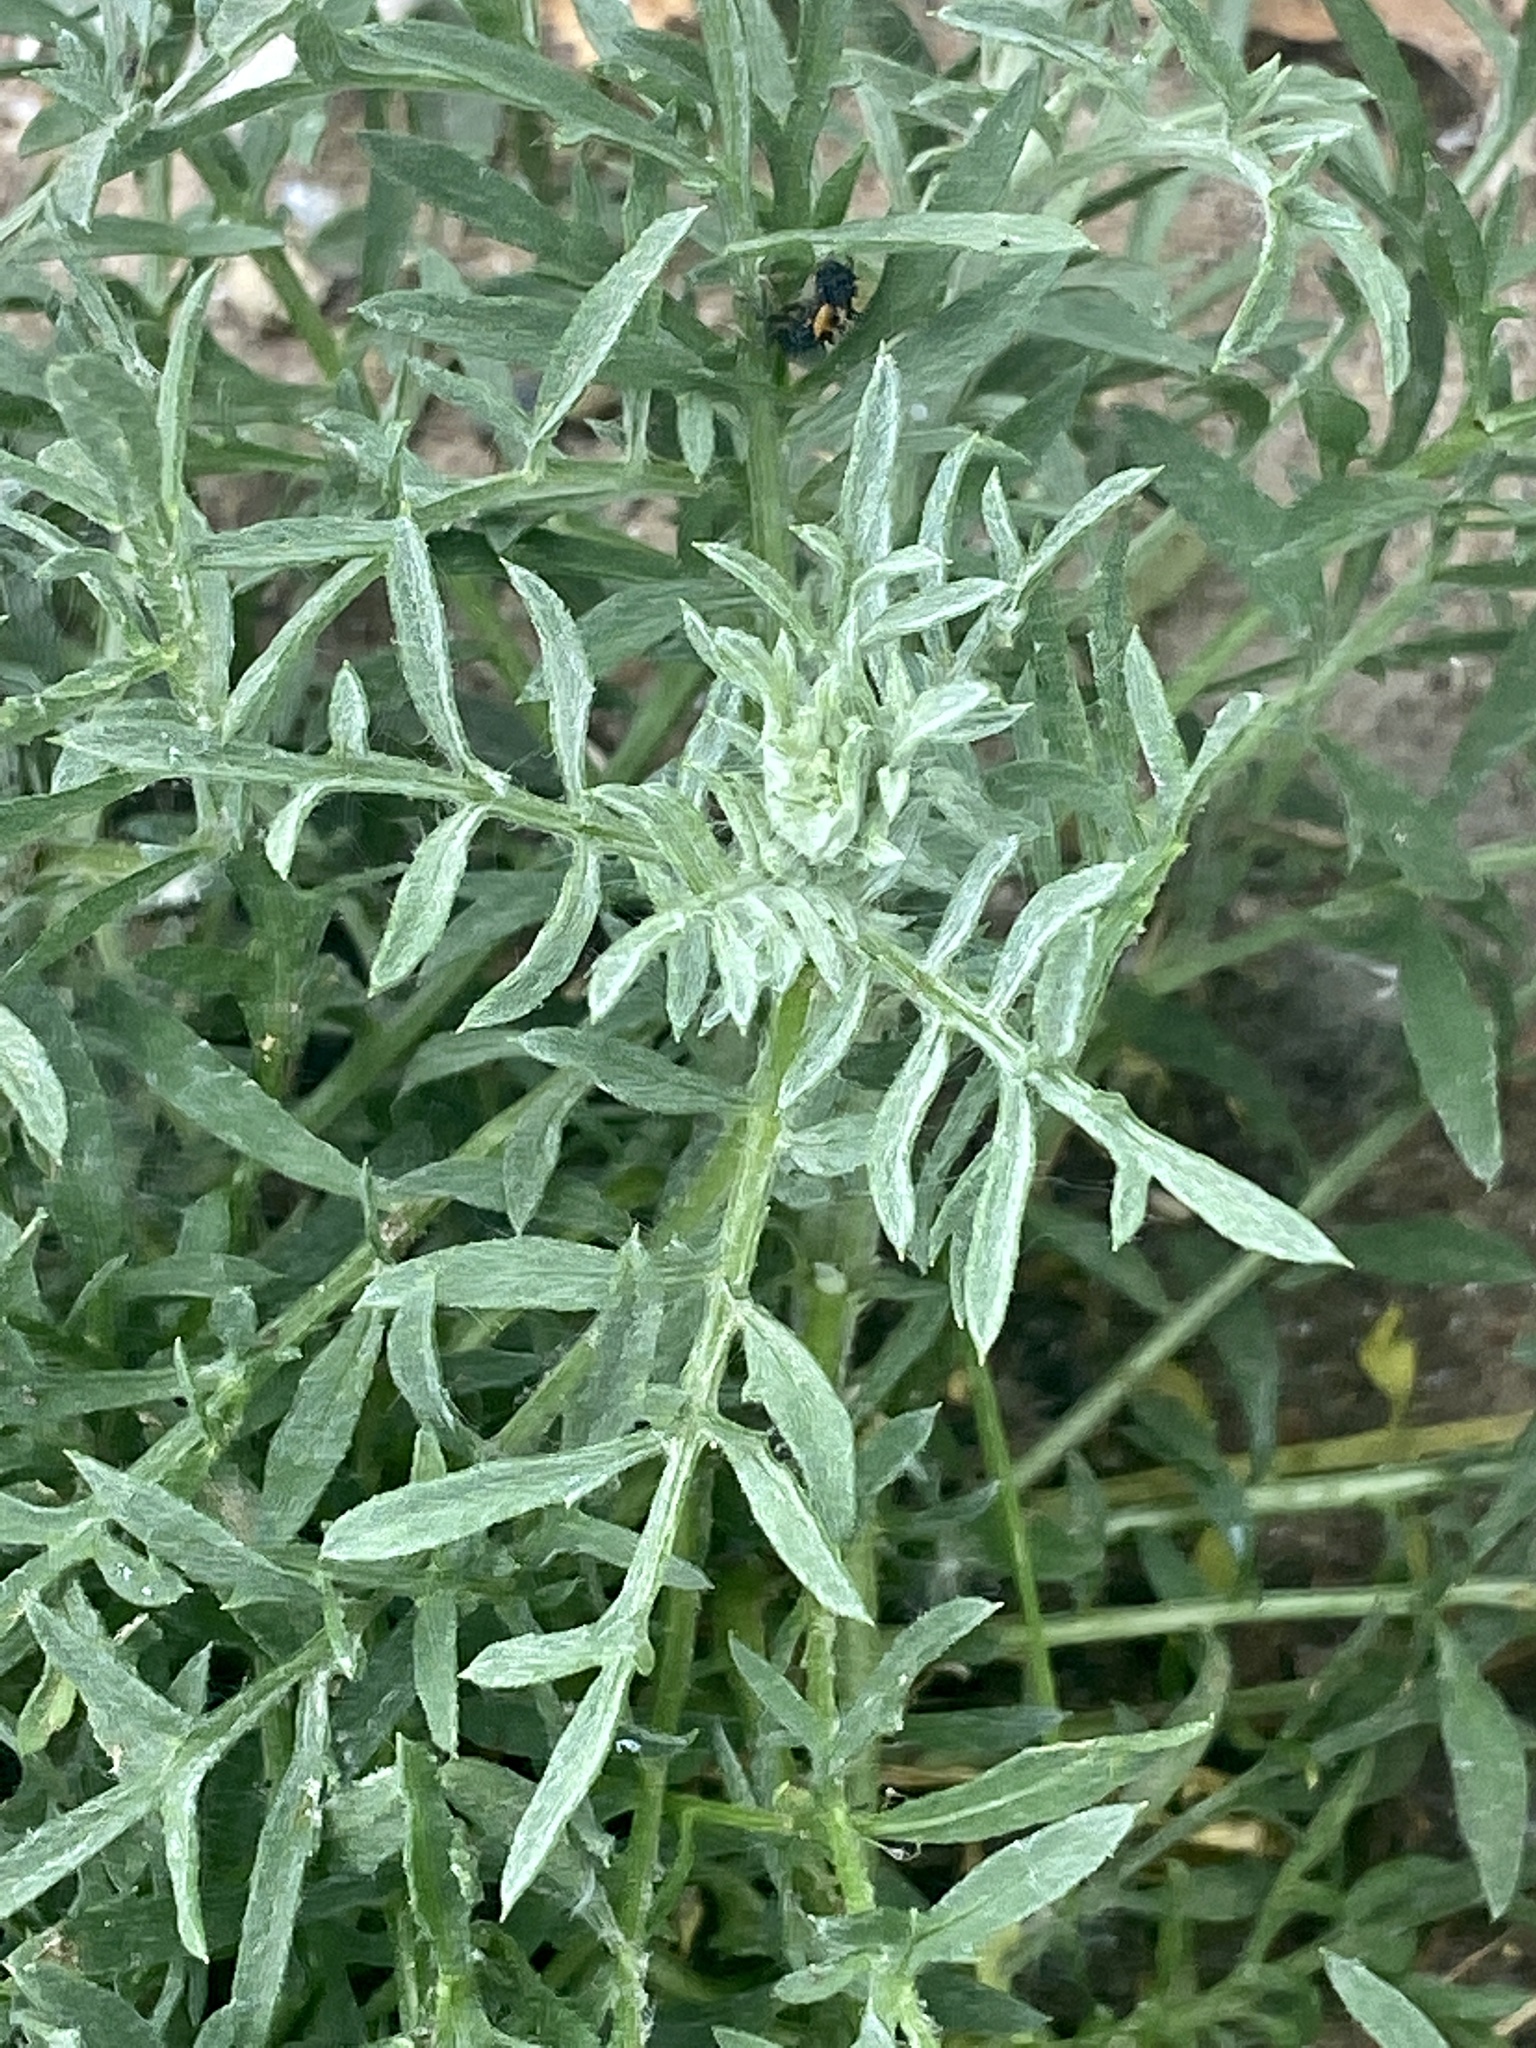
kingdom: Plantae
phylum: Tracheophyta
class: Magnoliopsida
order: Asterales
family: Asteraceae
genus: Centaurea
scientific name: Centaurea stoebe
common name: Spotted knapweed
